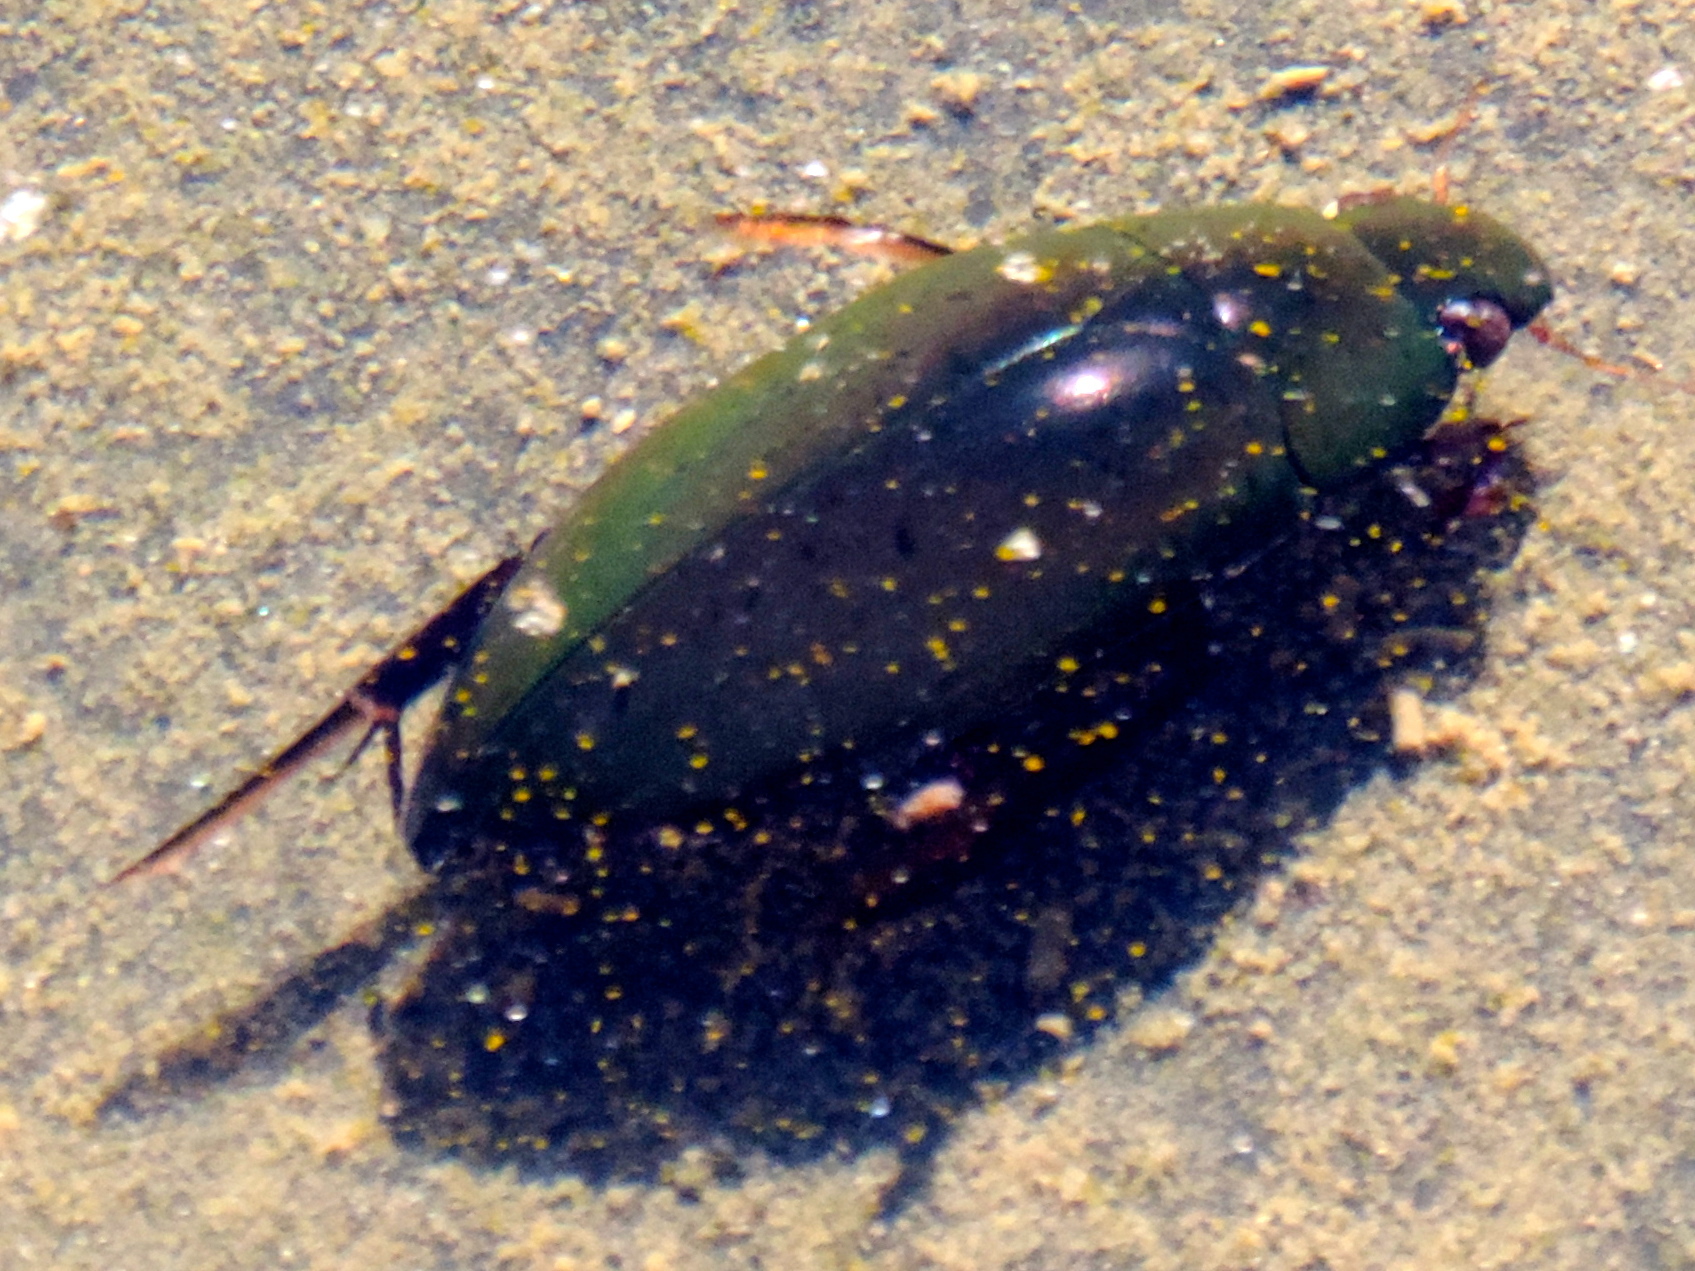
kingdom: Animalia
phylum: Arthropoda
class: Insecta
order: Coleoptera
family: Hydrophilidae
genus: Hydrophilus
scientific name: Hydrophilus
